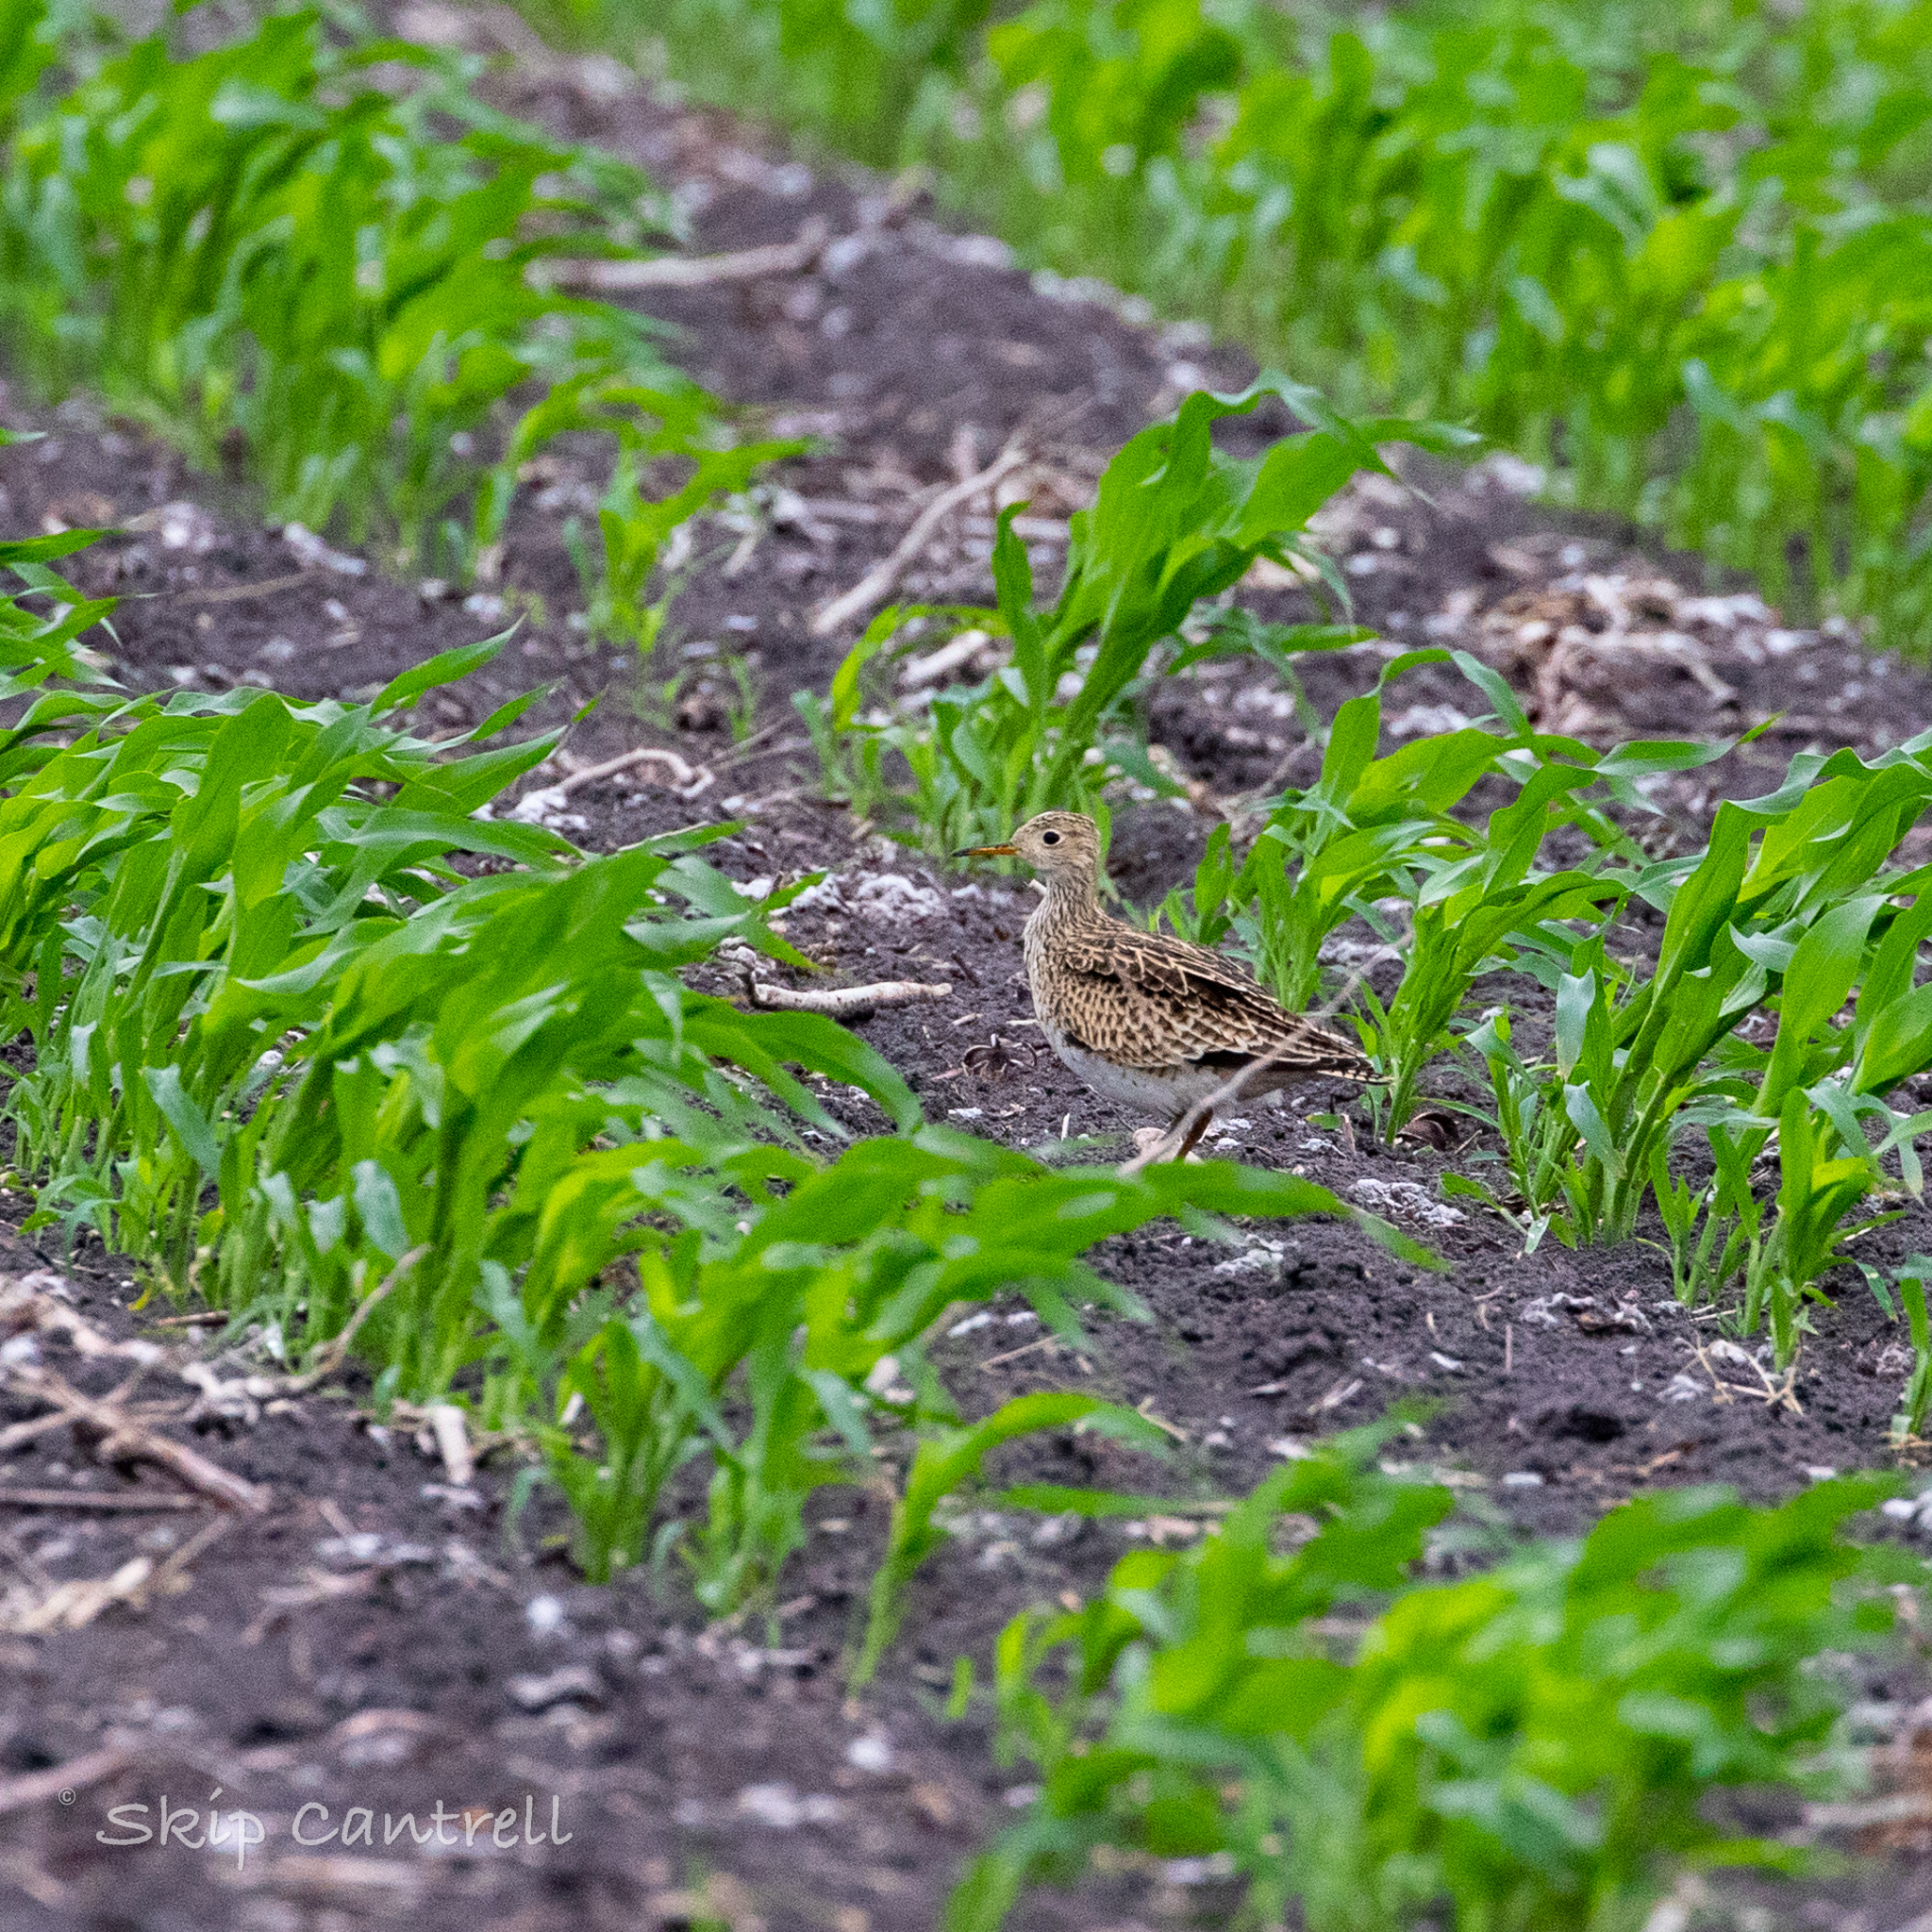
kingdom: Animalia
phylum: Chordata
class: Aves
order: Charadriiformes
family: Scolopacidae
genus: Bartramia
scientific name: Bartramia longicauda
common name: Upland sandpiper
